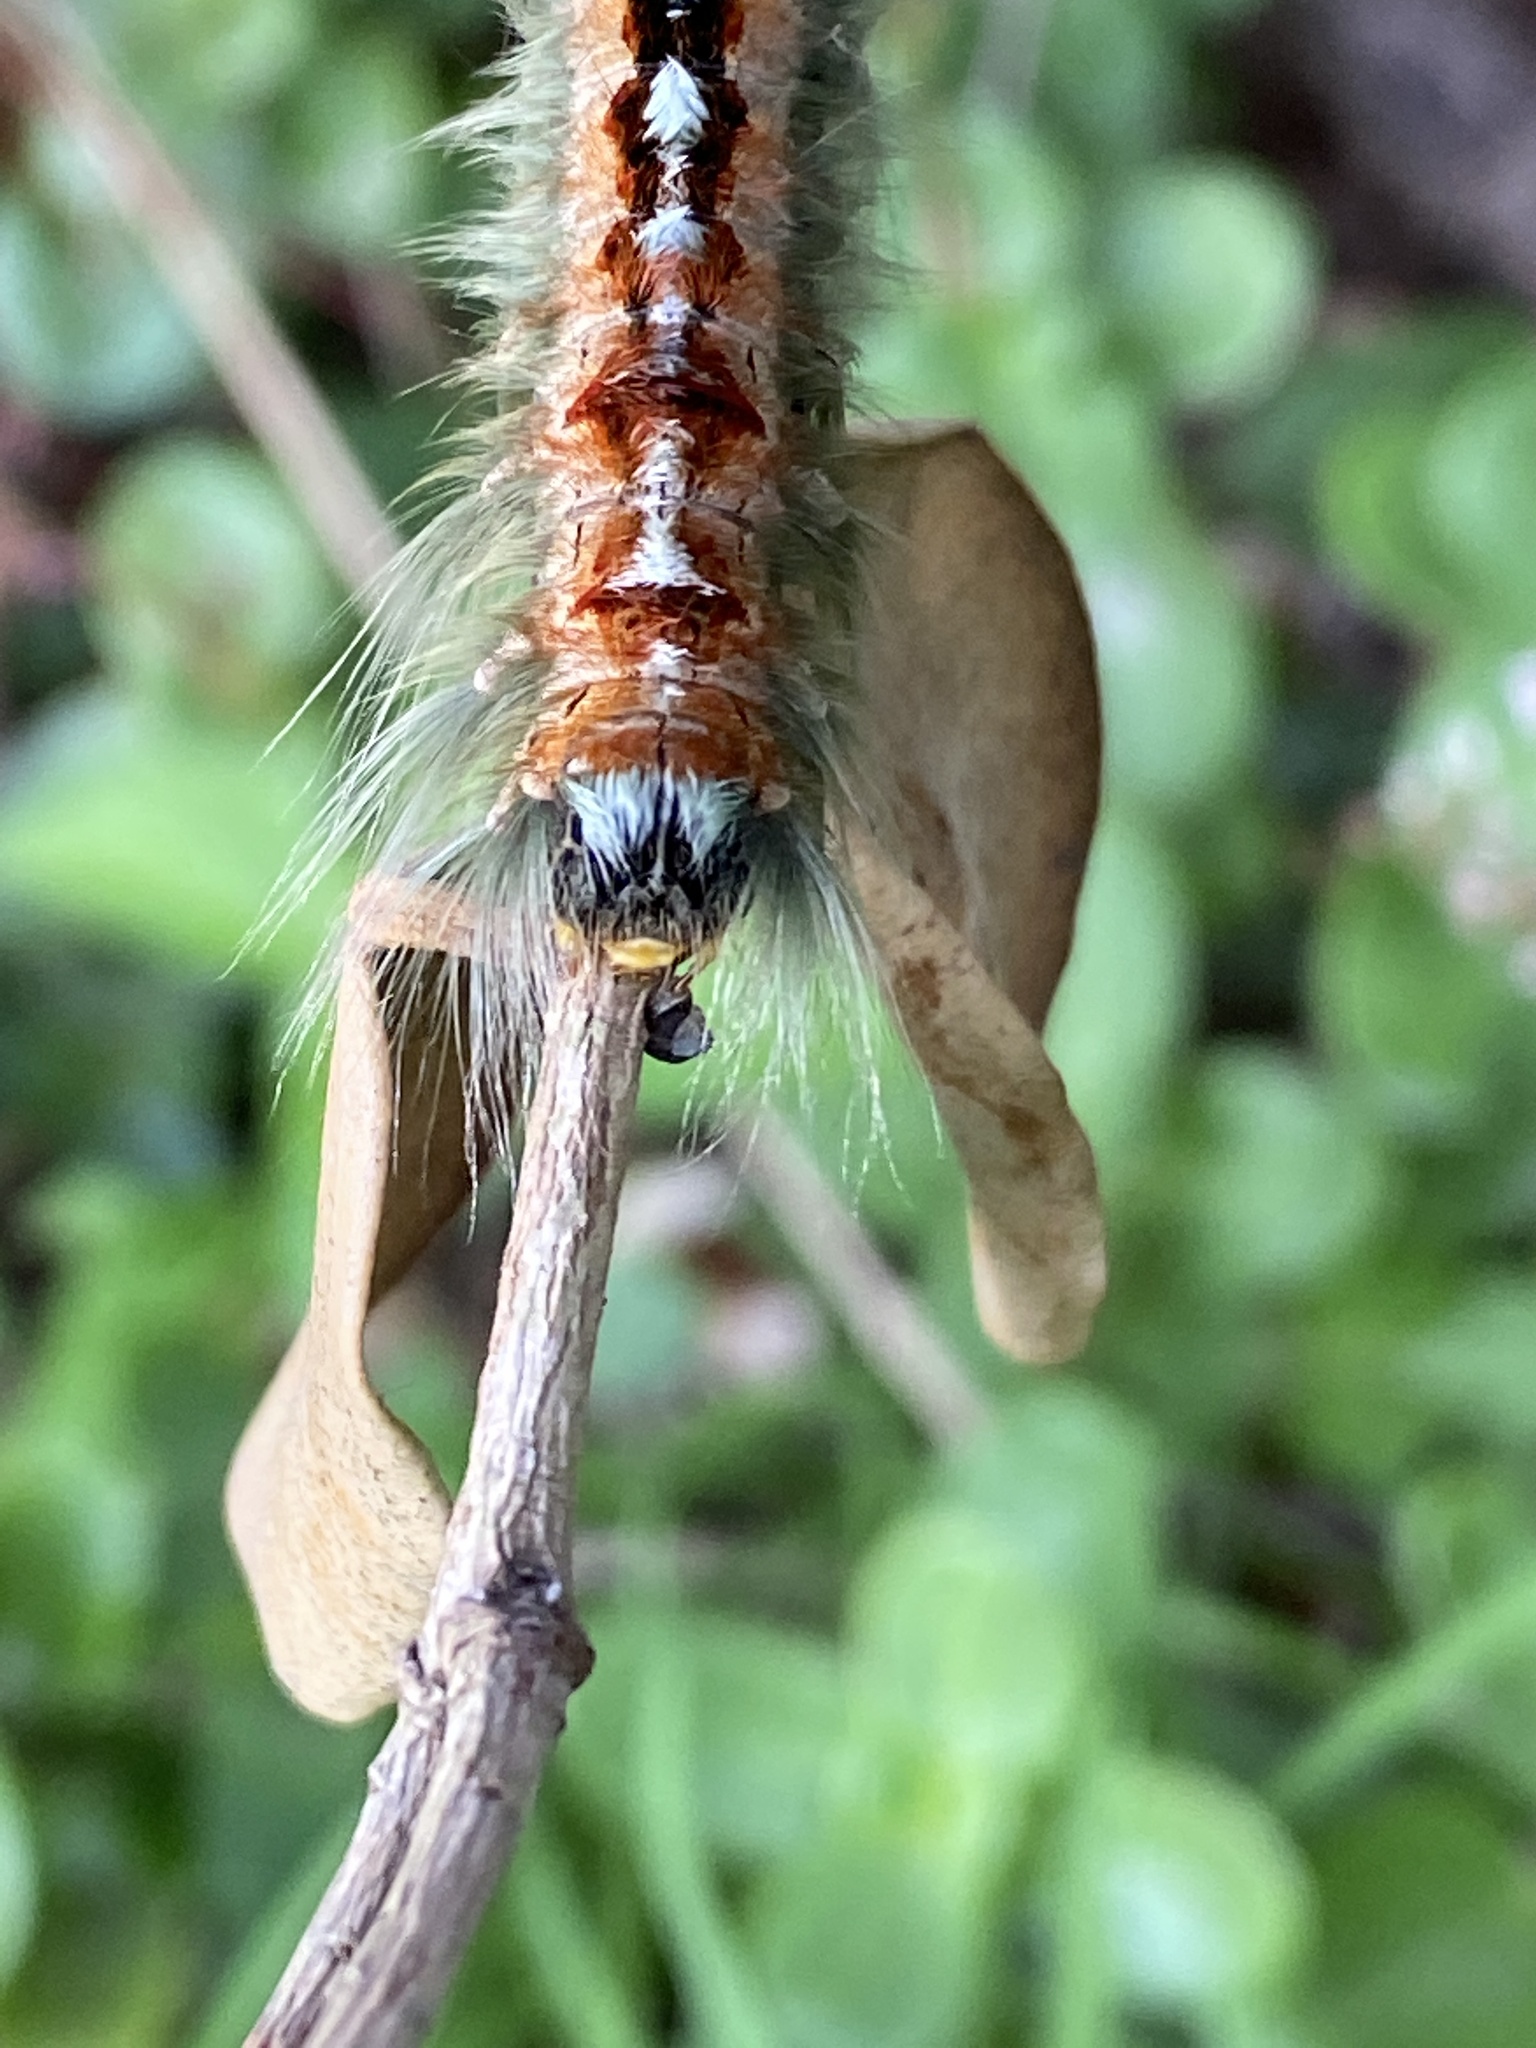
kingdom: Animalia
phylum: Arthropoda
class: Insecta
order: Lepidoptera
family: Lasiocampidae
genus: Eutricha
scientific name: Eutricha capensis
